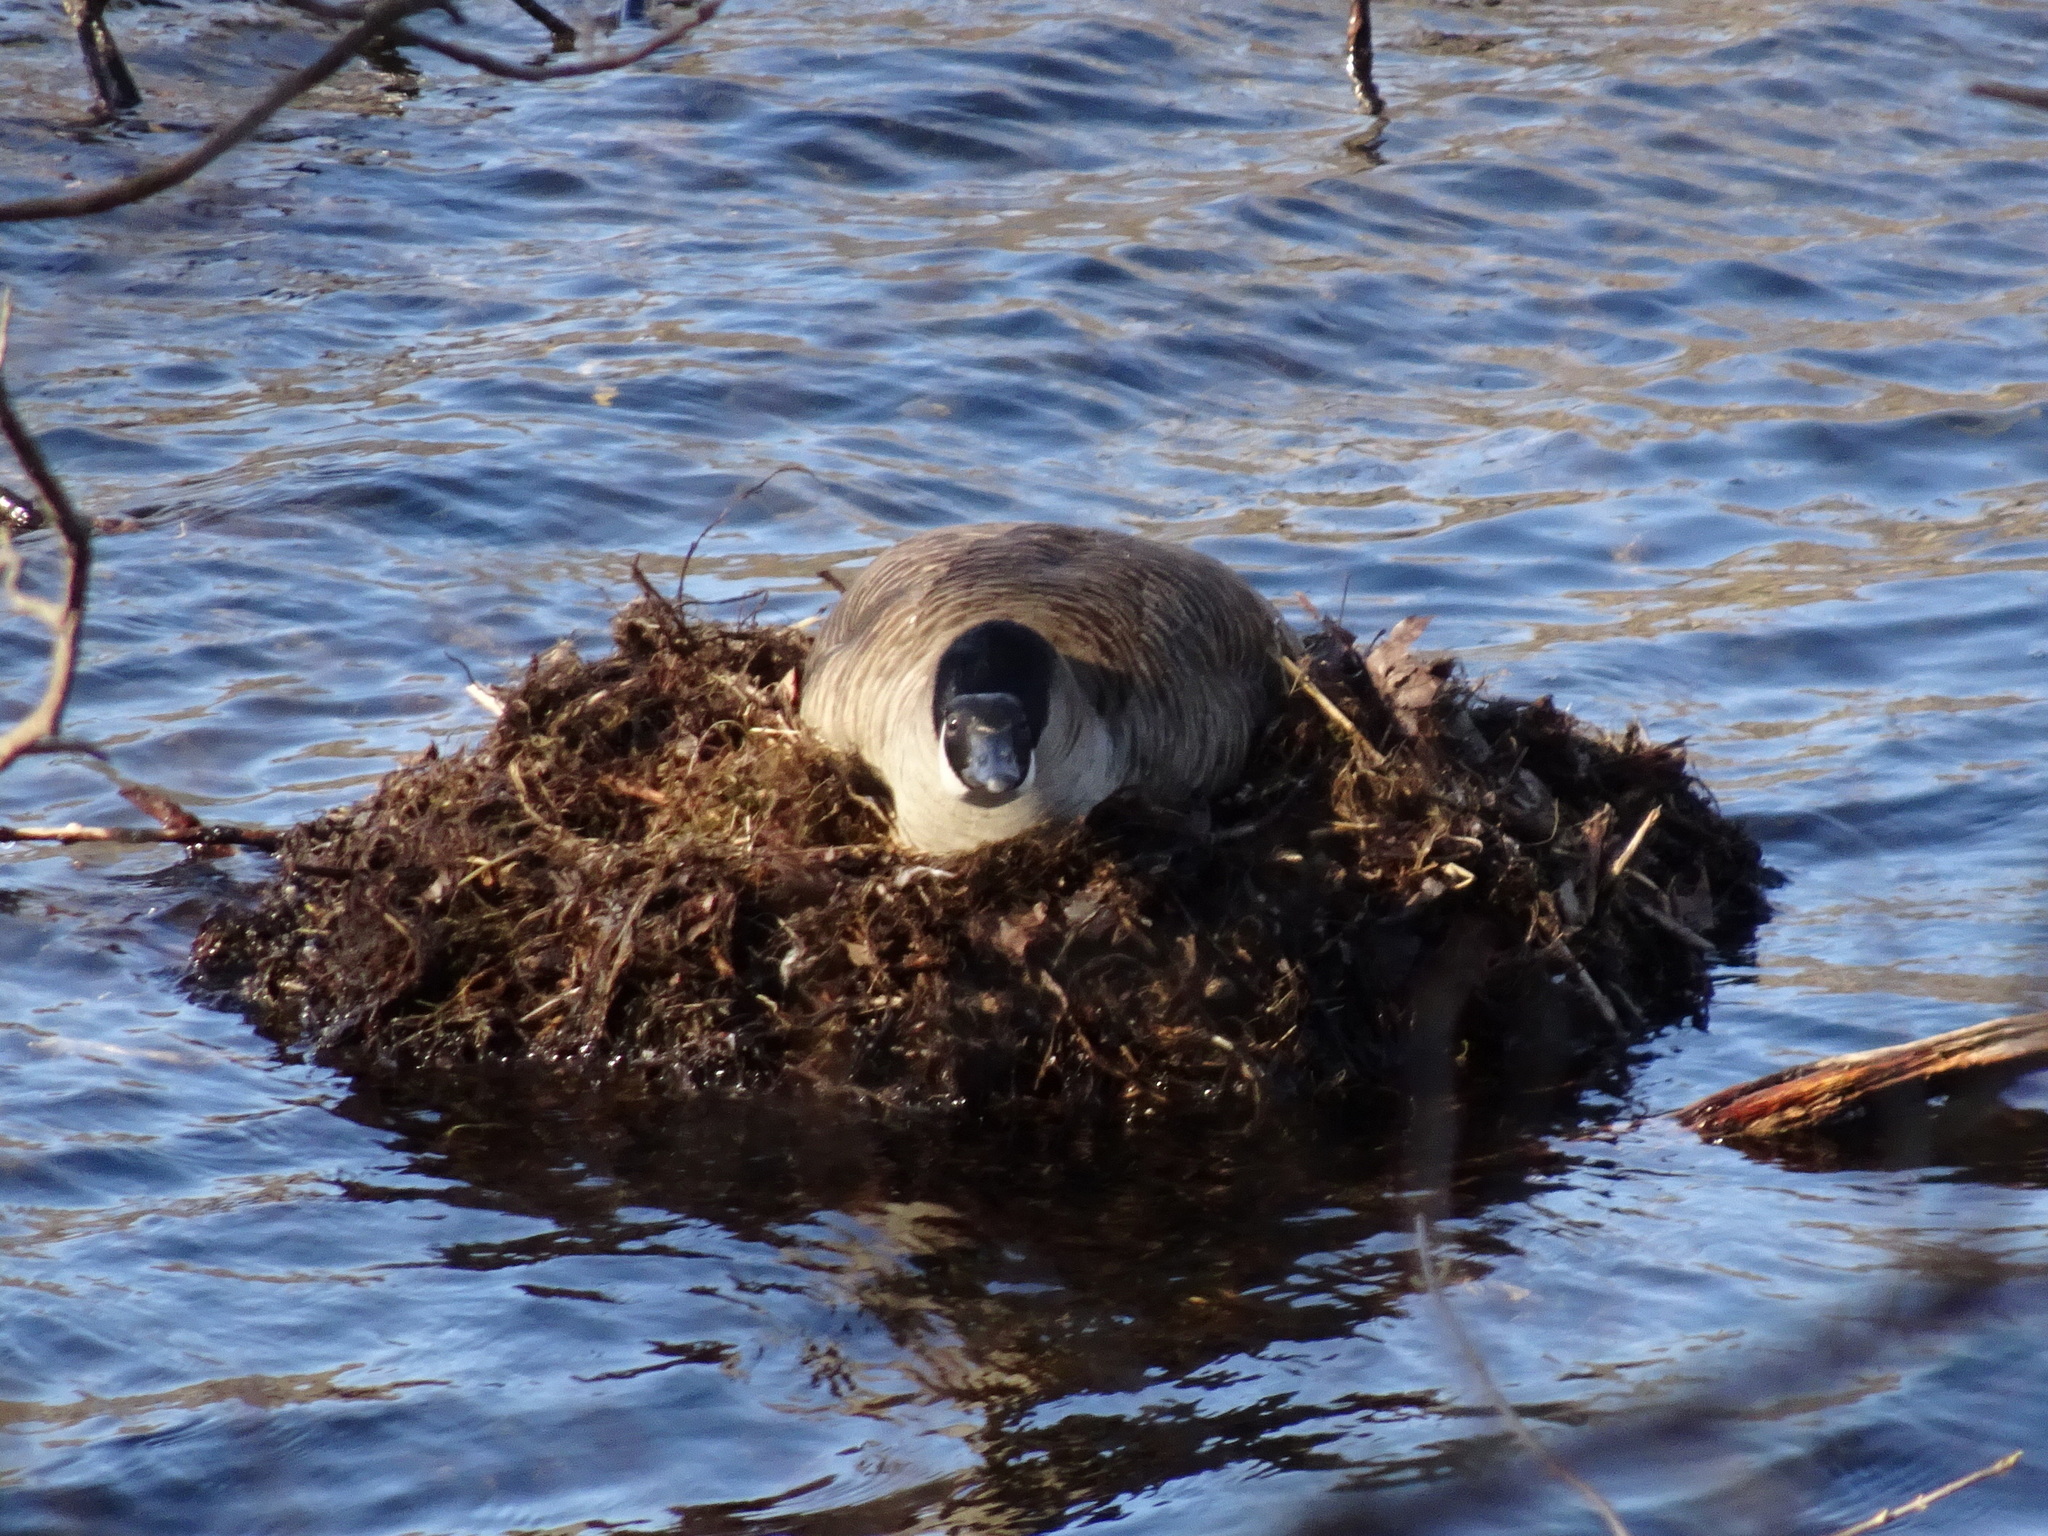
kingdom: Animalia
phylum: Chordata
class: Aves
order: Anseriformes
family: Anatidae
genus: Branta
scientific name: Branta canadensis
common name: Canada goose
